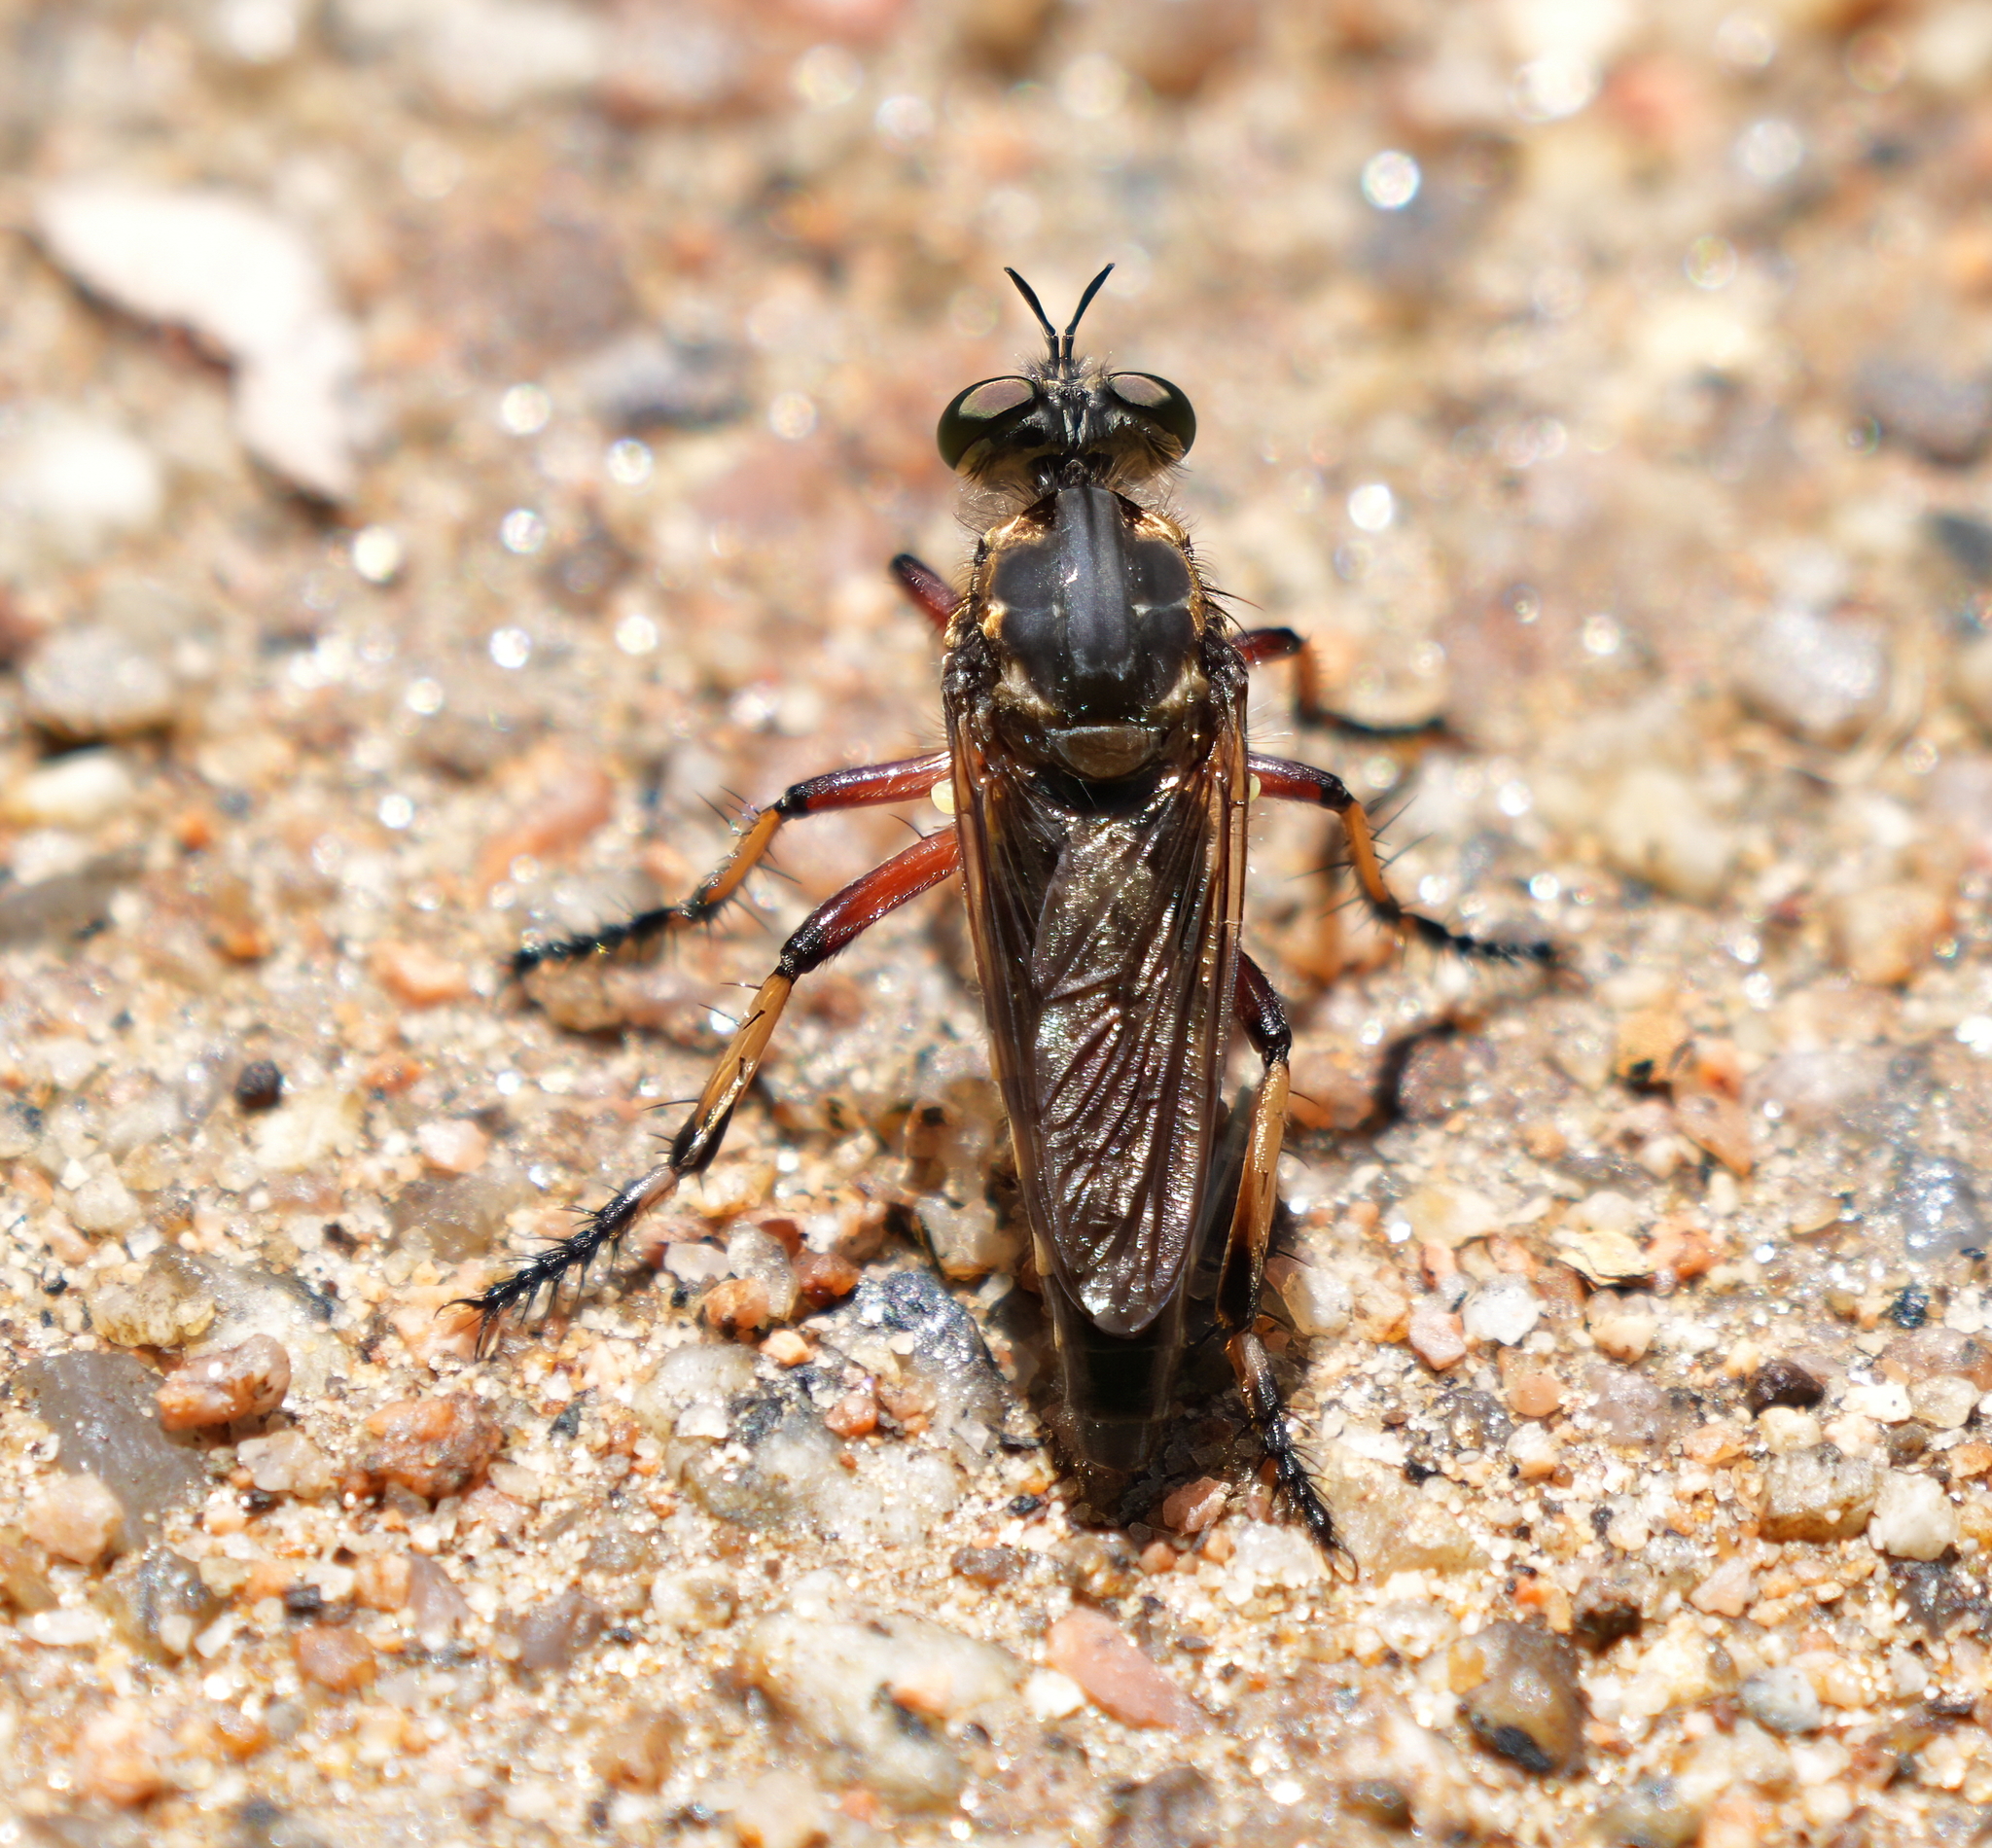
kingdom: Animalia
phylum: Arthropoda
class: Insecta
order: Diptera
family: Asilidae
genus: Thereutria
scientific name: Thereutria amaraca
